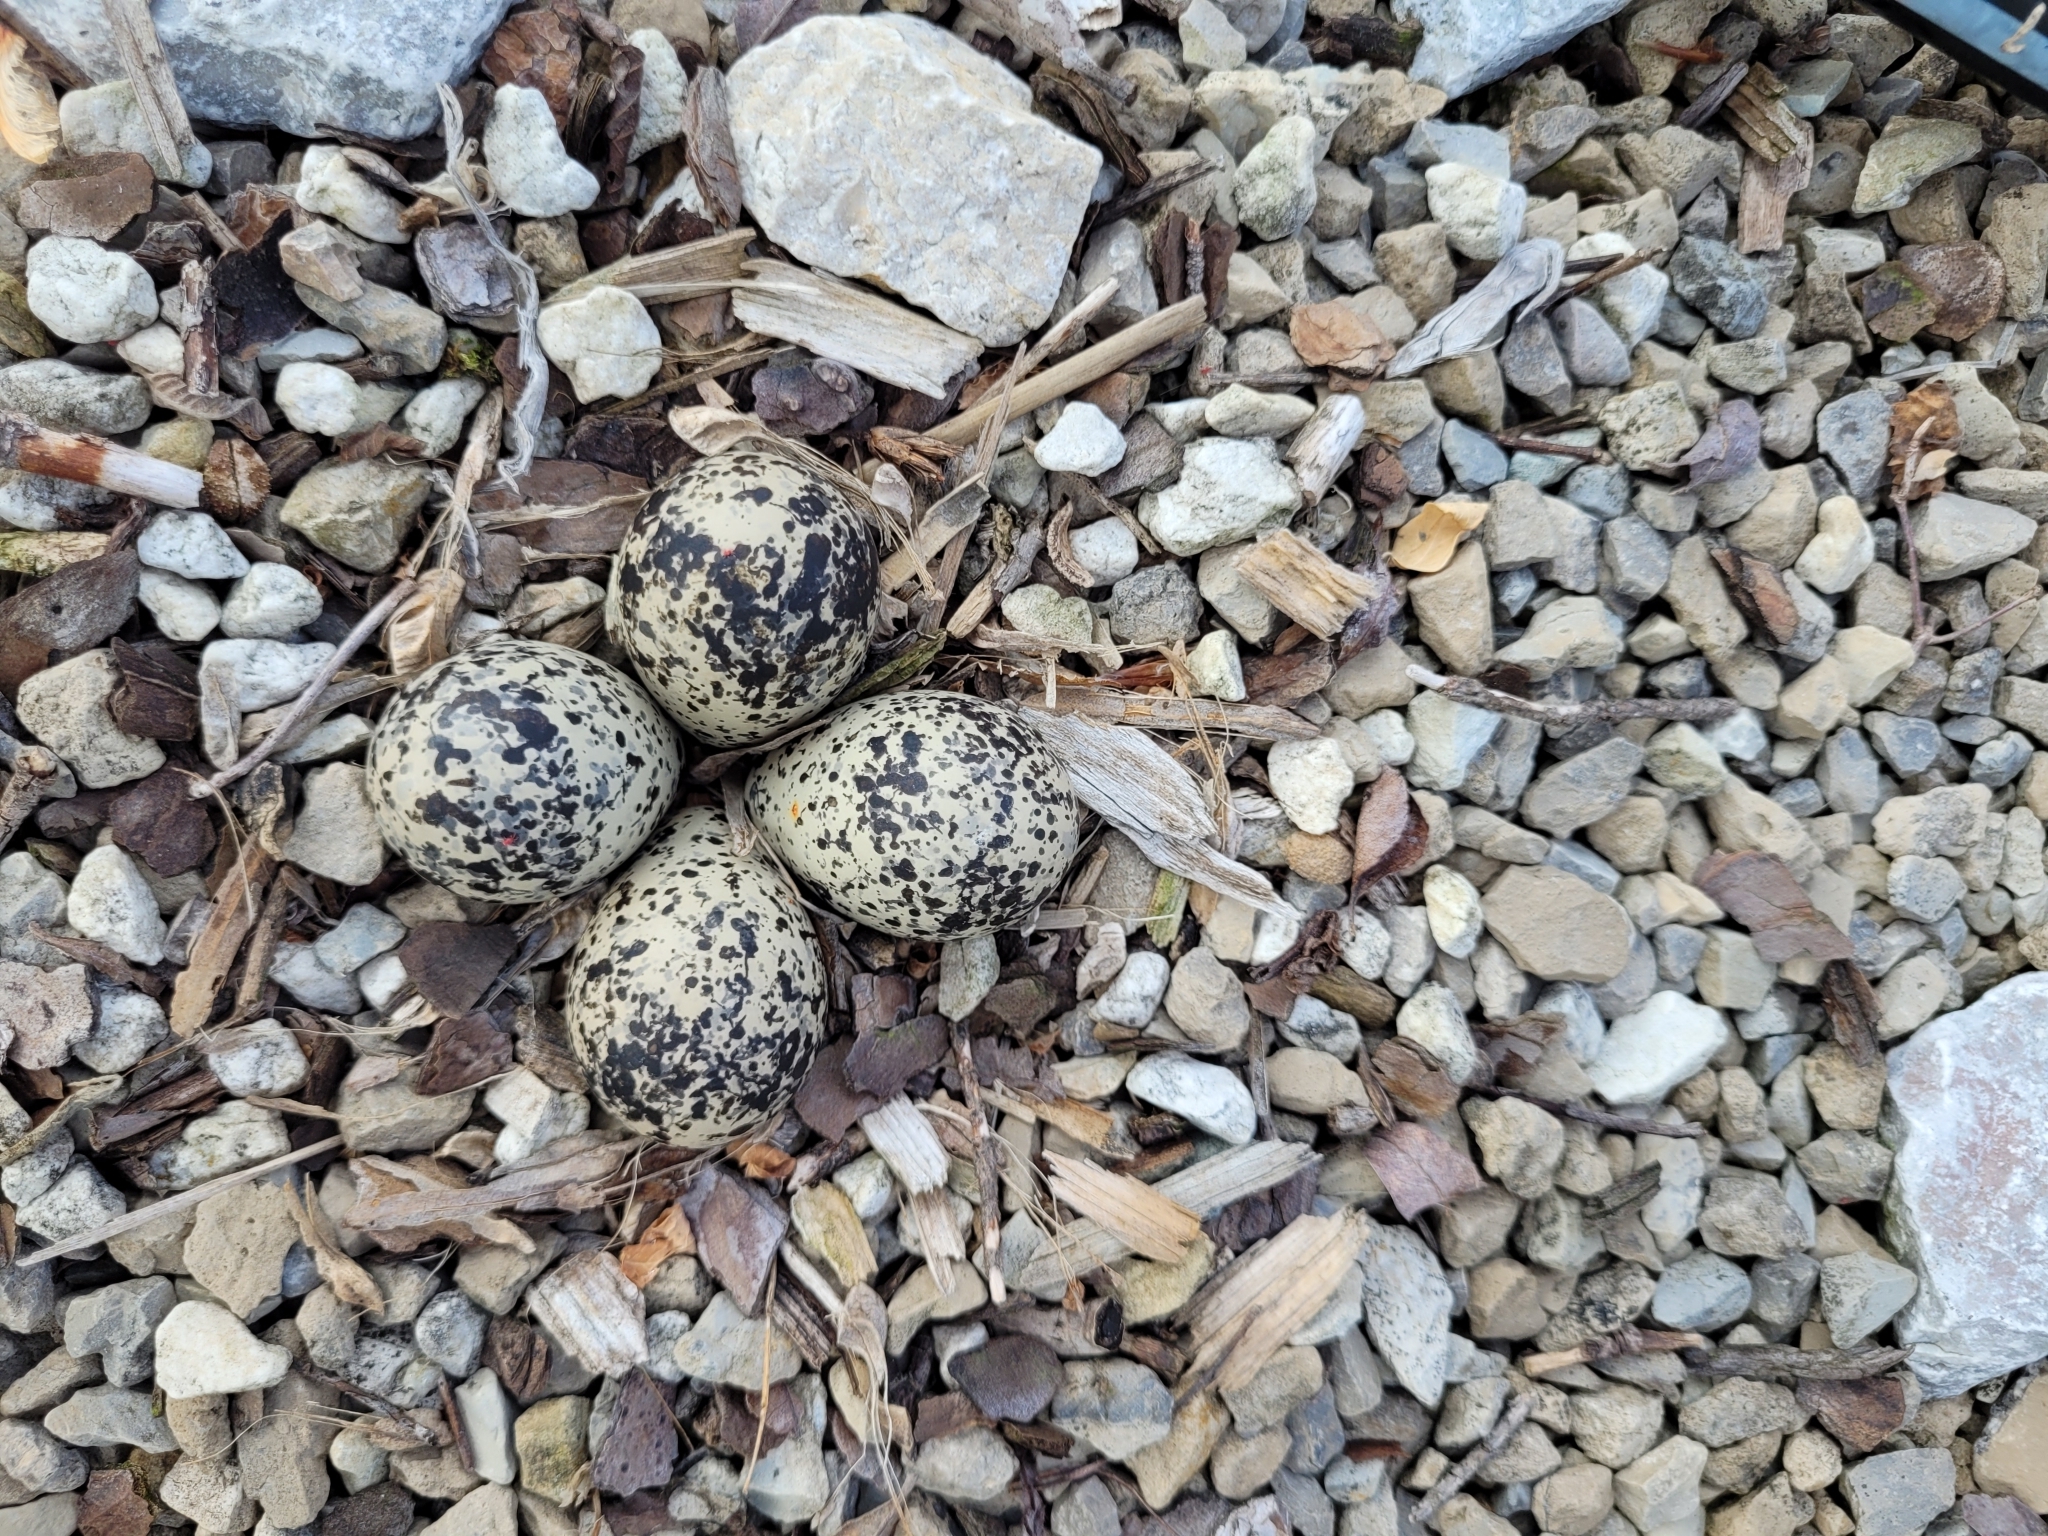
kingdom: Animalia
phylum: Chordata
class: Aves
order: Charadriiformes
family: Charadriidae
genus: Charadrius
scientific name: Charadrius vociferus
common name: Killdeer
